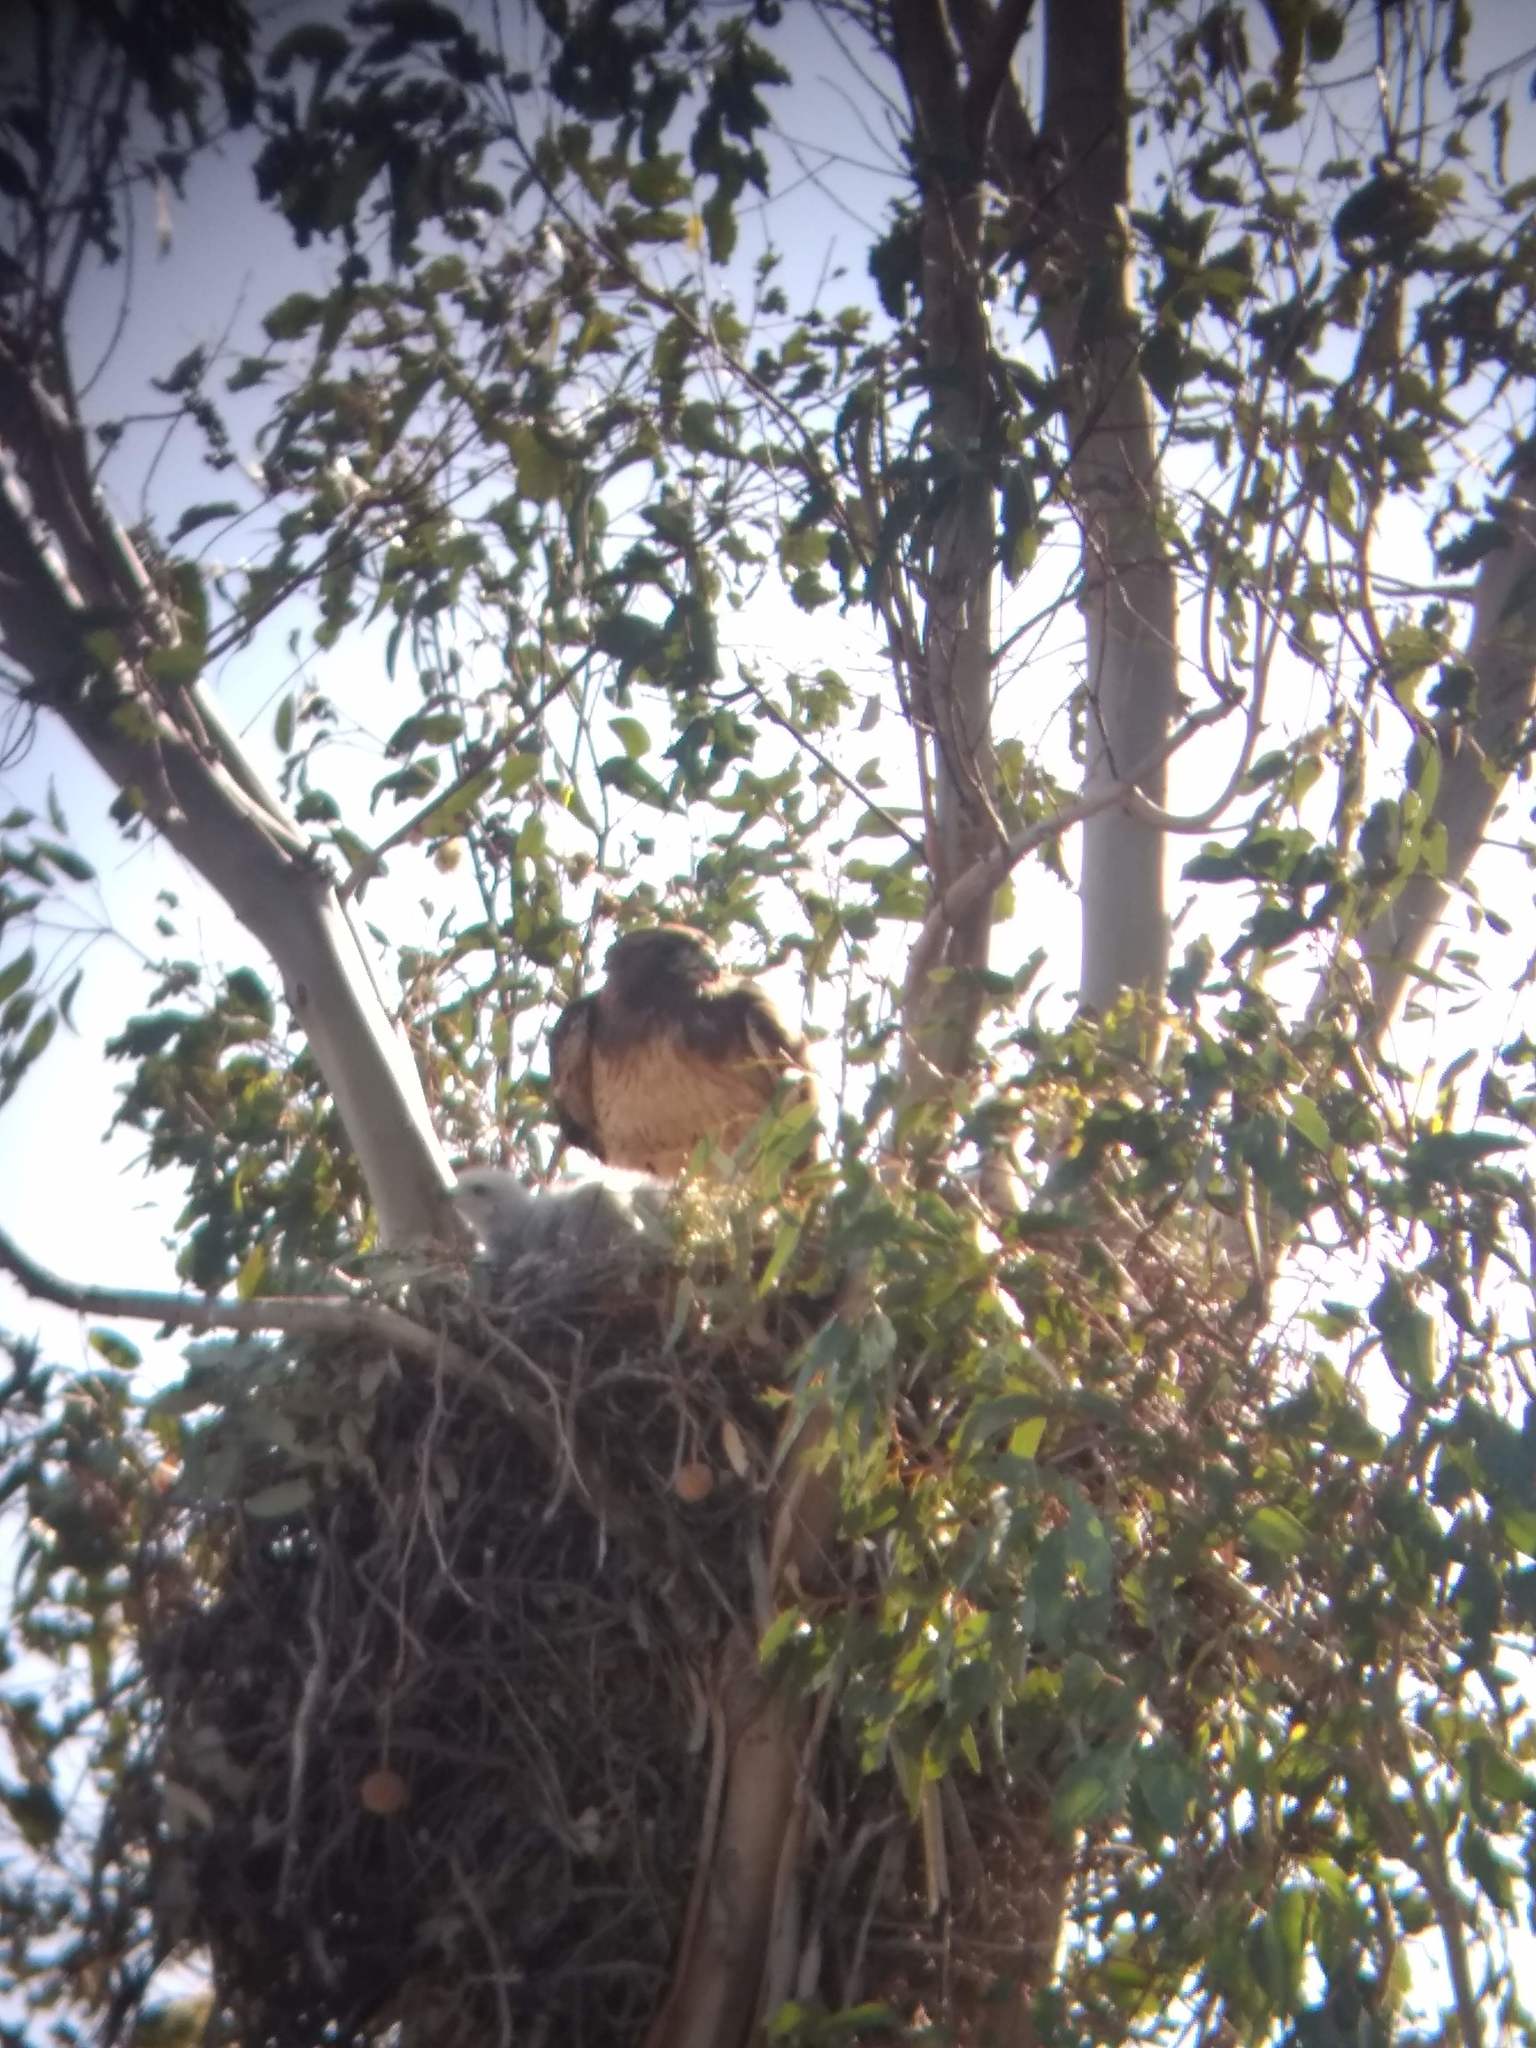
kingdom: Animalia
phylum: Chordata
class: Aves
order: Accipitriformes
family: Accipitridae
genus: Buteo
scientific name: Buteo jamaicensis
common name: Red-tailed hawk
